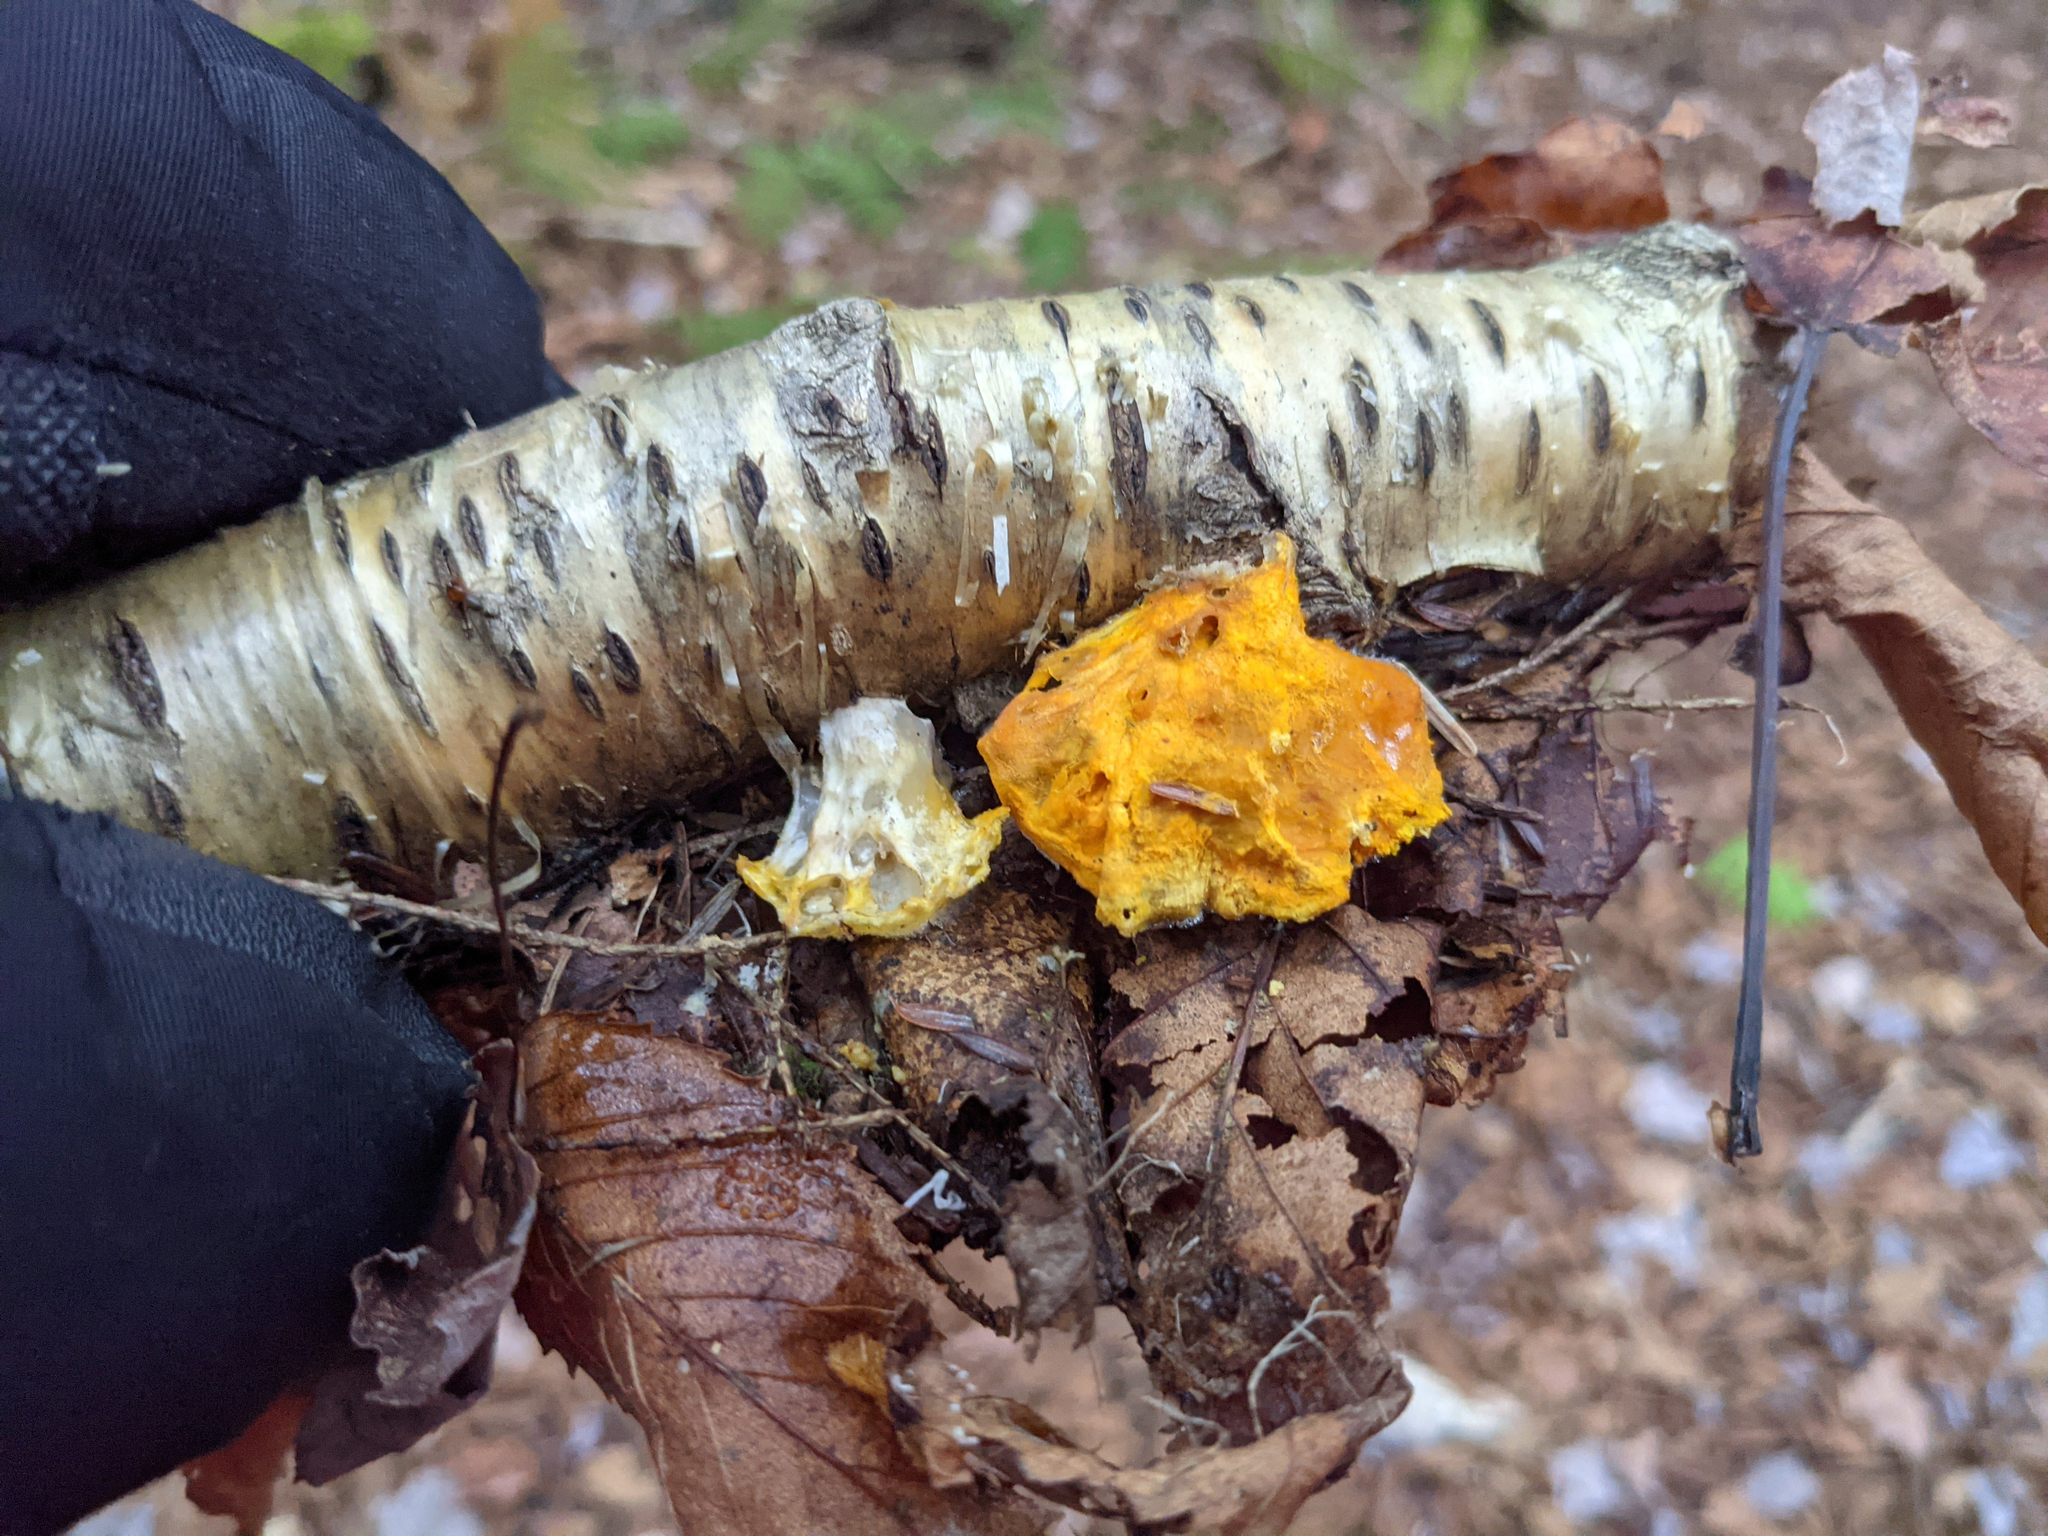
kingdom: Plantae
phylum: Tracheophyta
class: Magnoliopsida
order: Fagales
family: Betulaceae
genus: Betula
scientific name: Betula alleghaniensis
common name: Yellow birch
